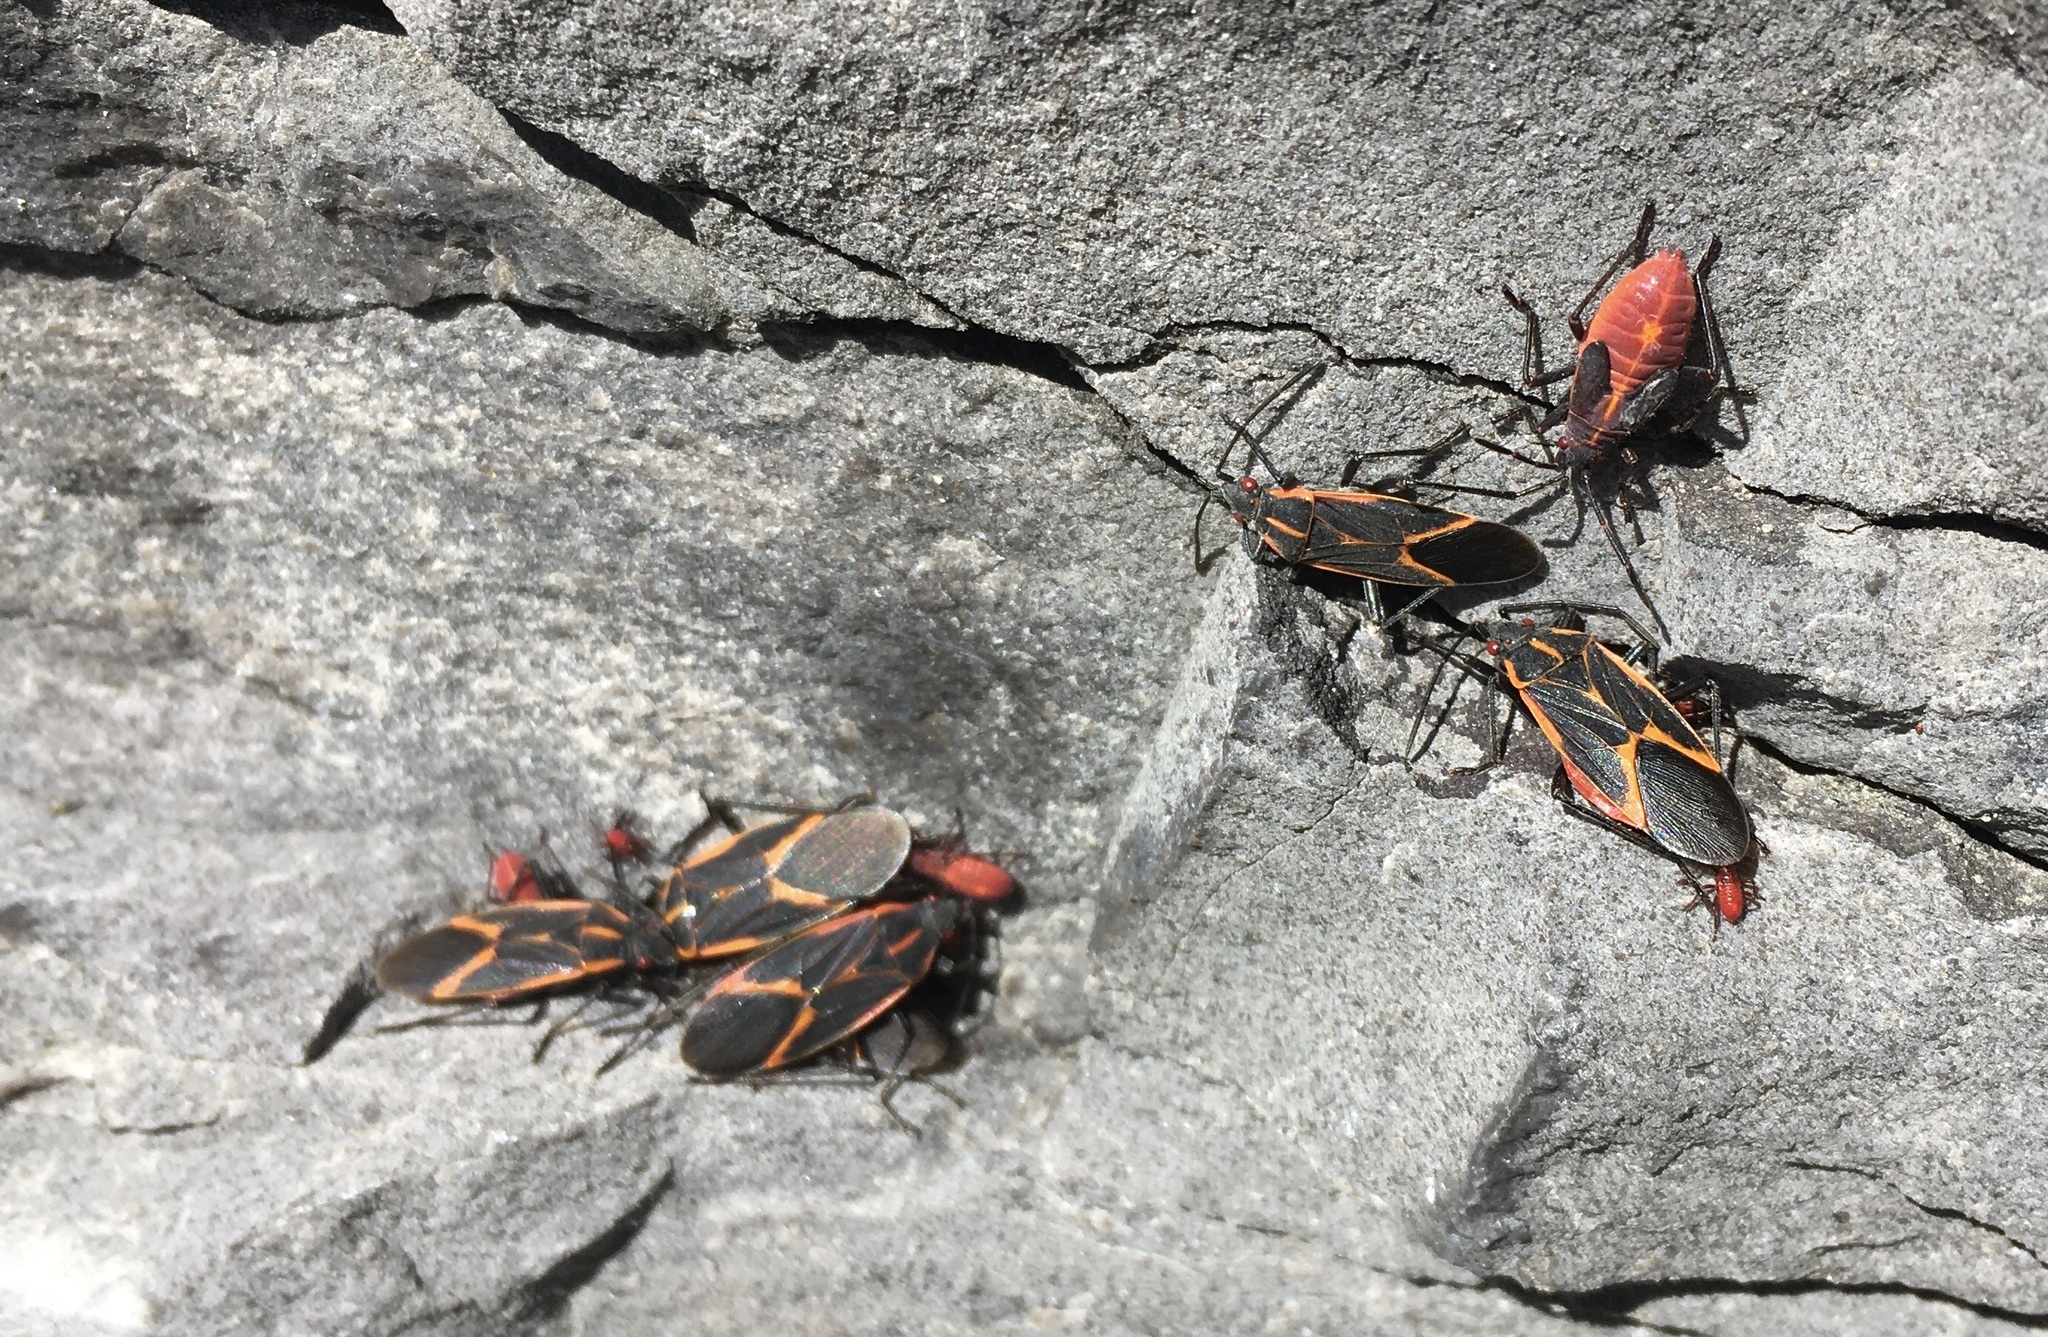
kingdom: Animalia
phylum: Arthropoda
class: Insecta
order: Hemiptera
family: Rhopalidae
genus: Boisea
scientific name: Boisea trivittata
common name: Boxelder bug
